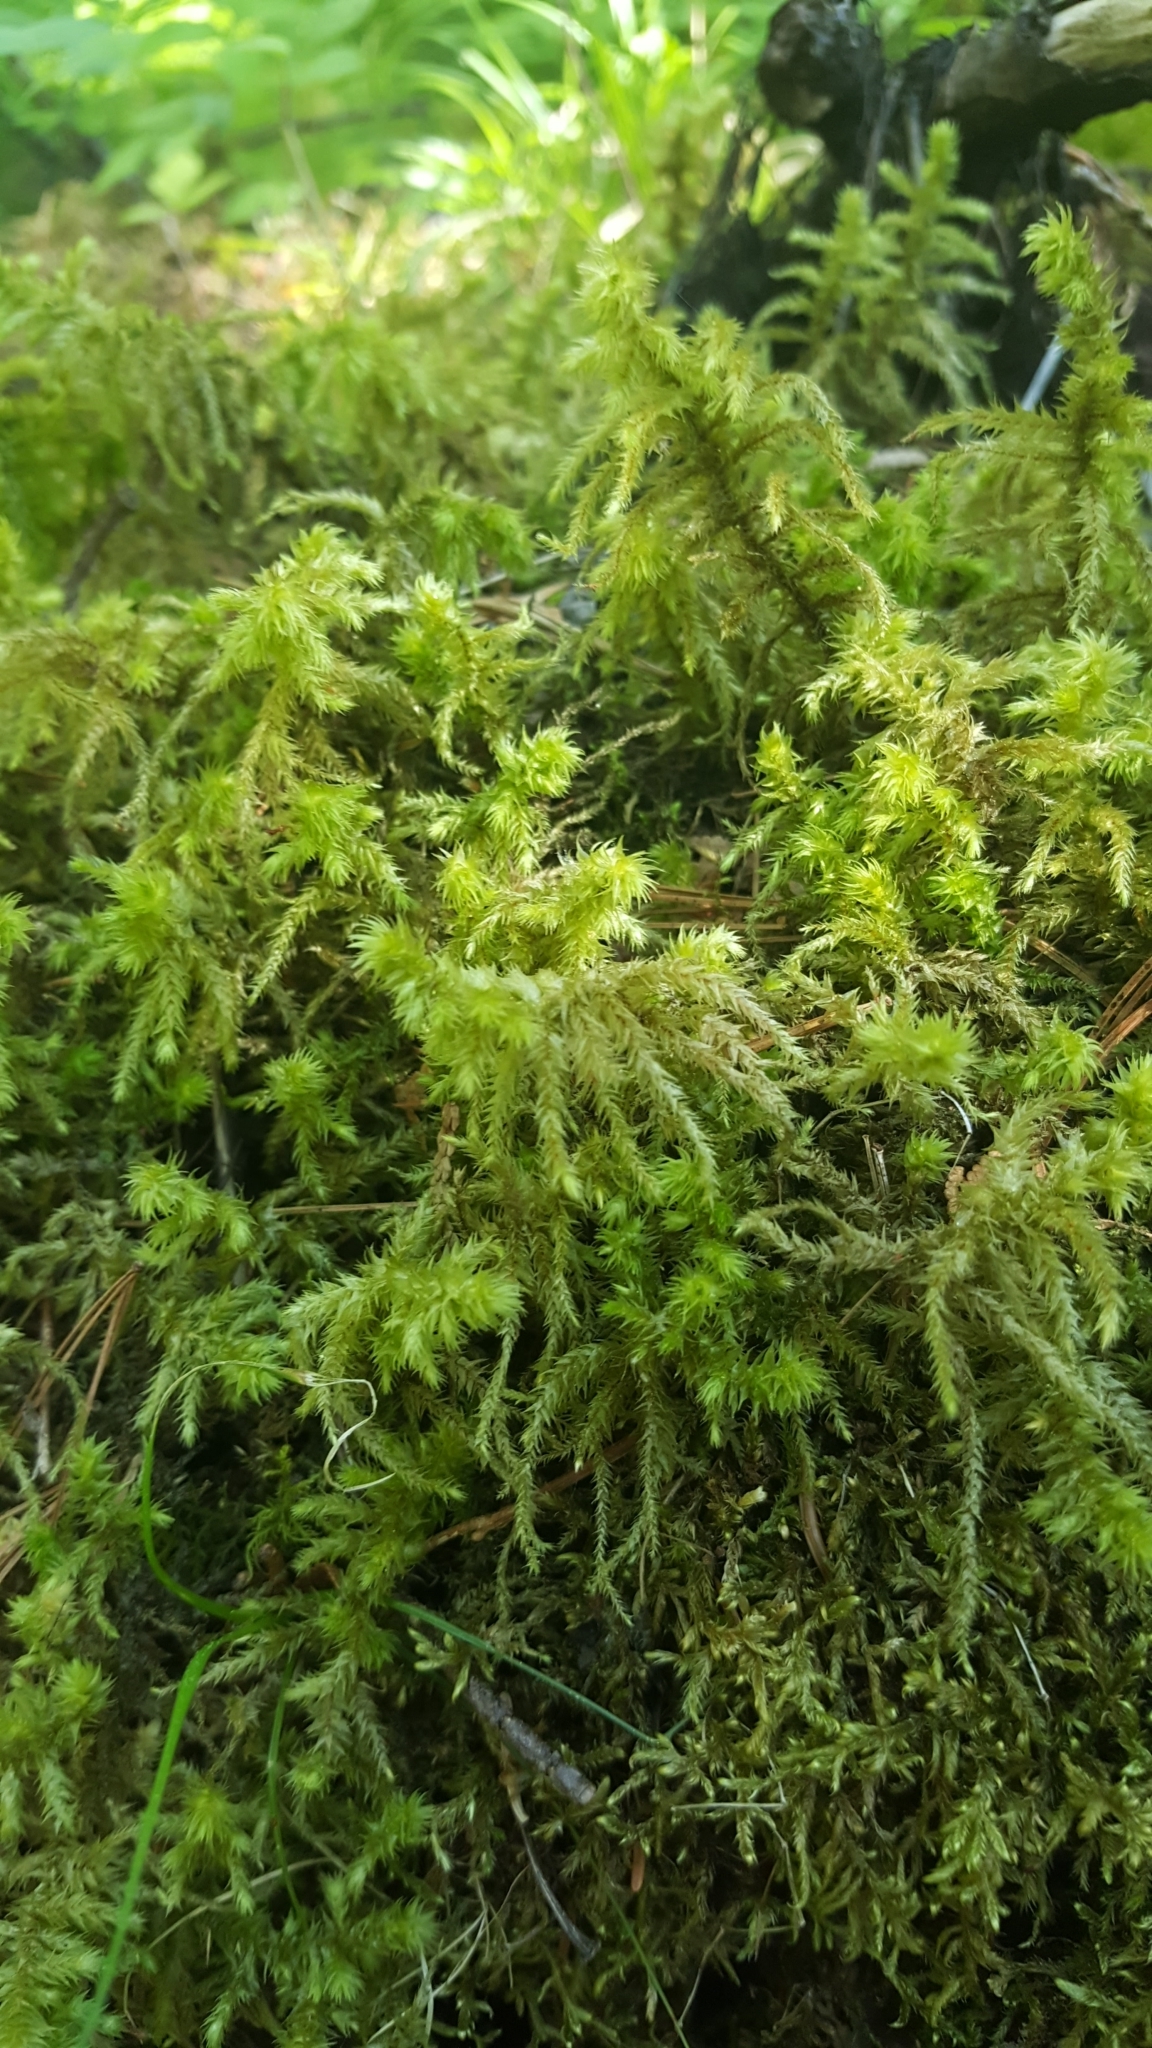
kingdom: Plantae
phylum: Bryophyta
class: Bryopsida
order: Hypnales
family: Hylocomiaceae
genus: Hylocomiadelphus
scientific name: Hylocomiadelphus triquetrus
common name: Rough goose neck moss
